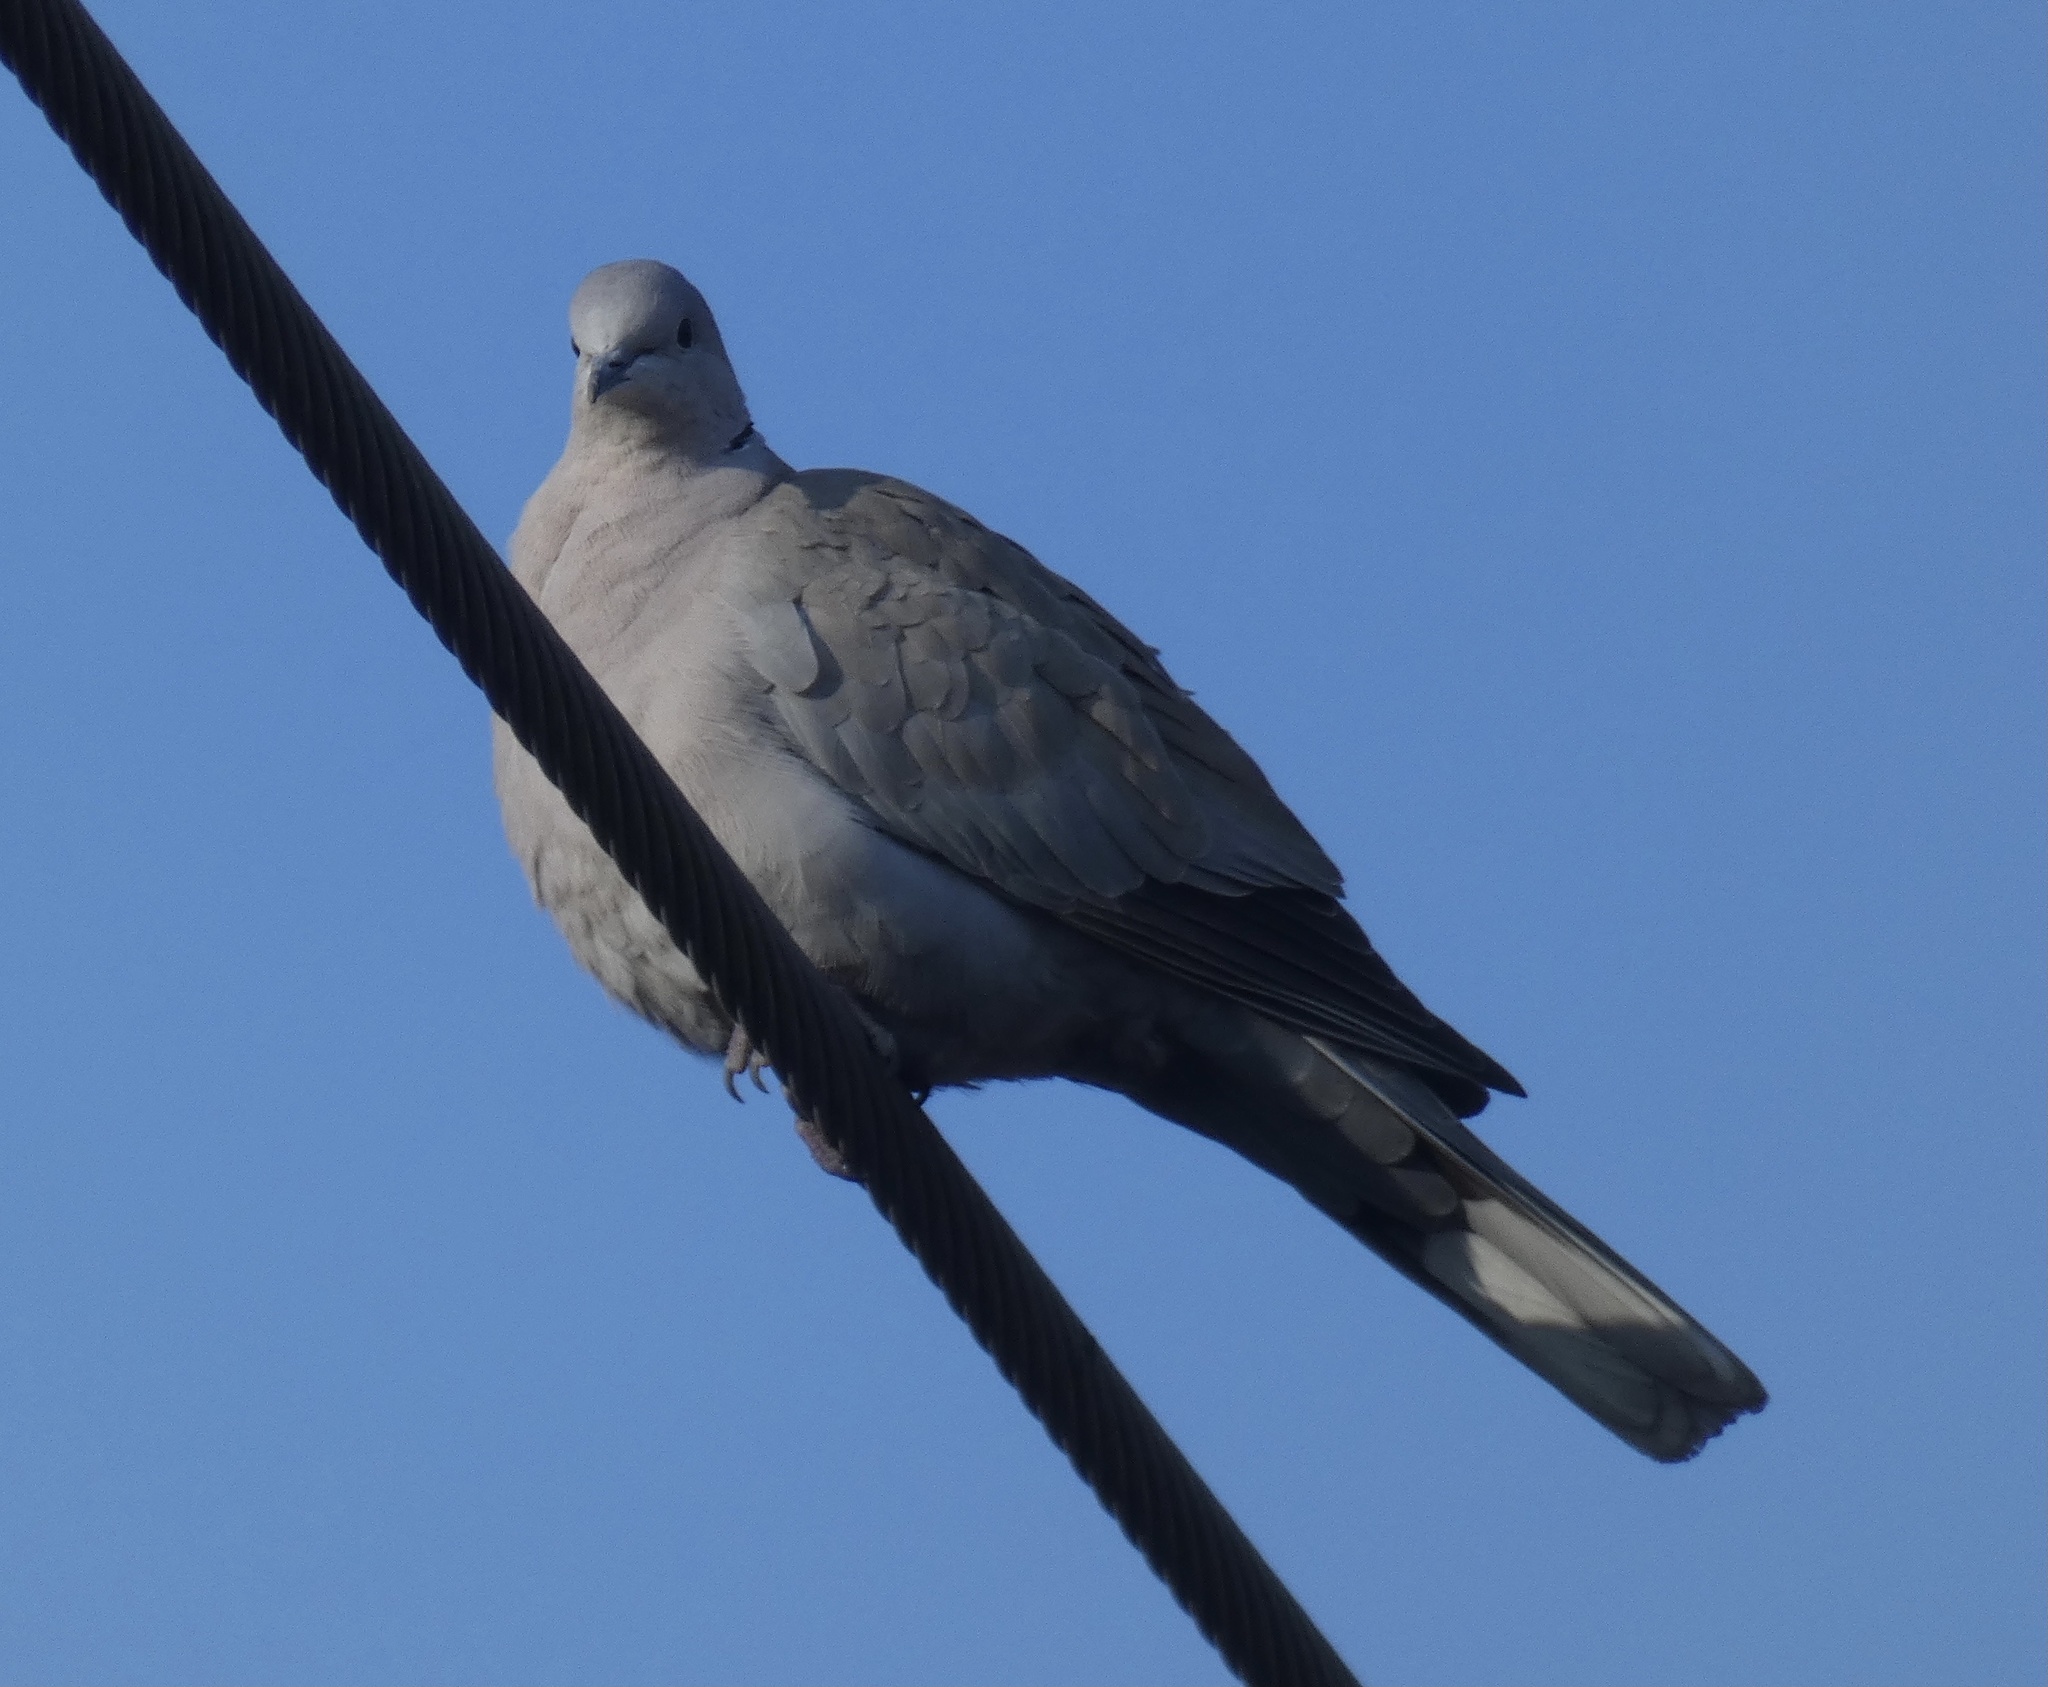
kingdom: Animalia
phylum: Chordata
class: Aves
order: Columbiformes
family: Columbidae
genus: Streptopelia
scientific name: Streptopelia decaocto
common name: Eurasian collared dove
